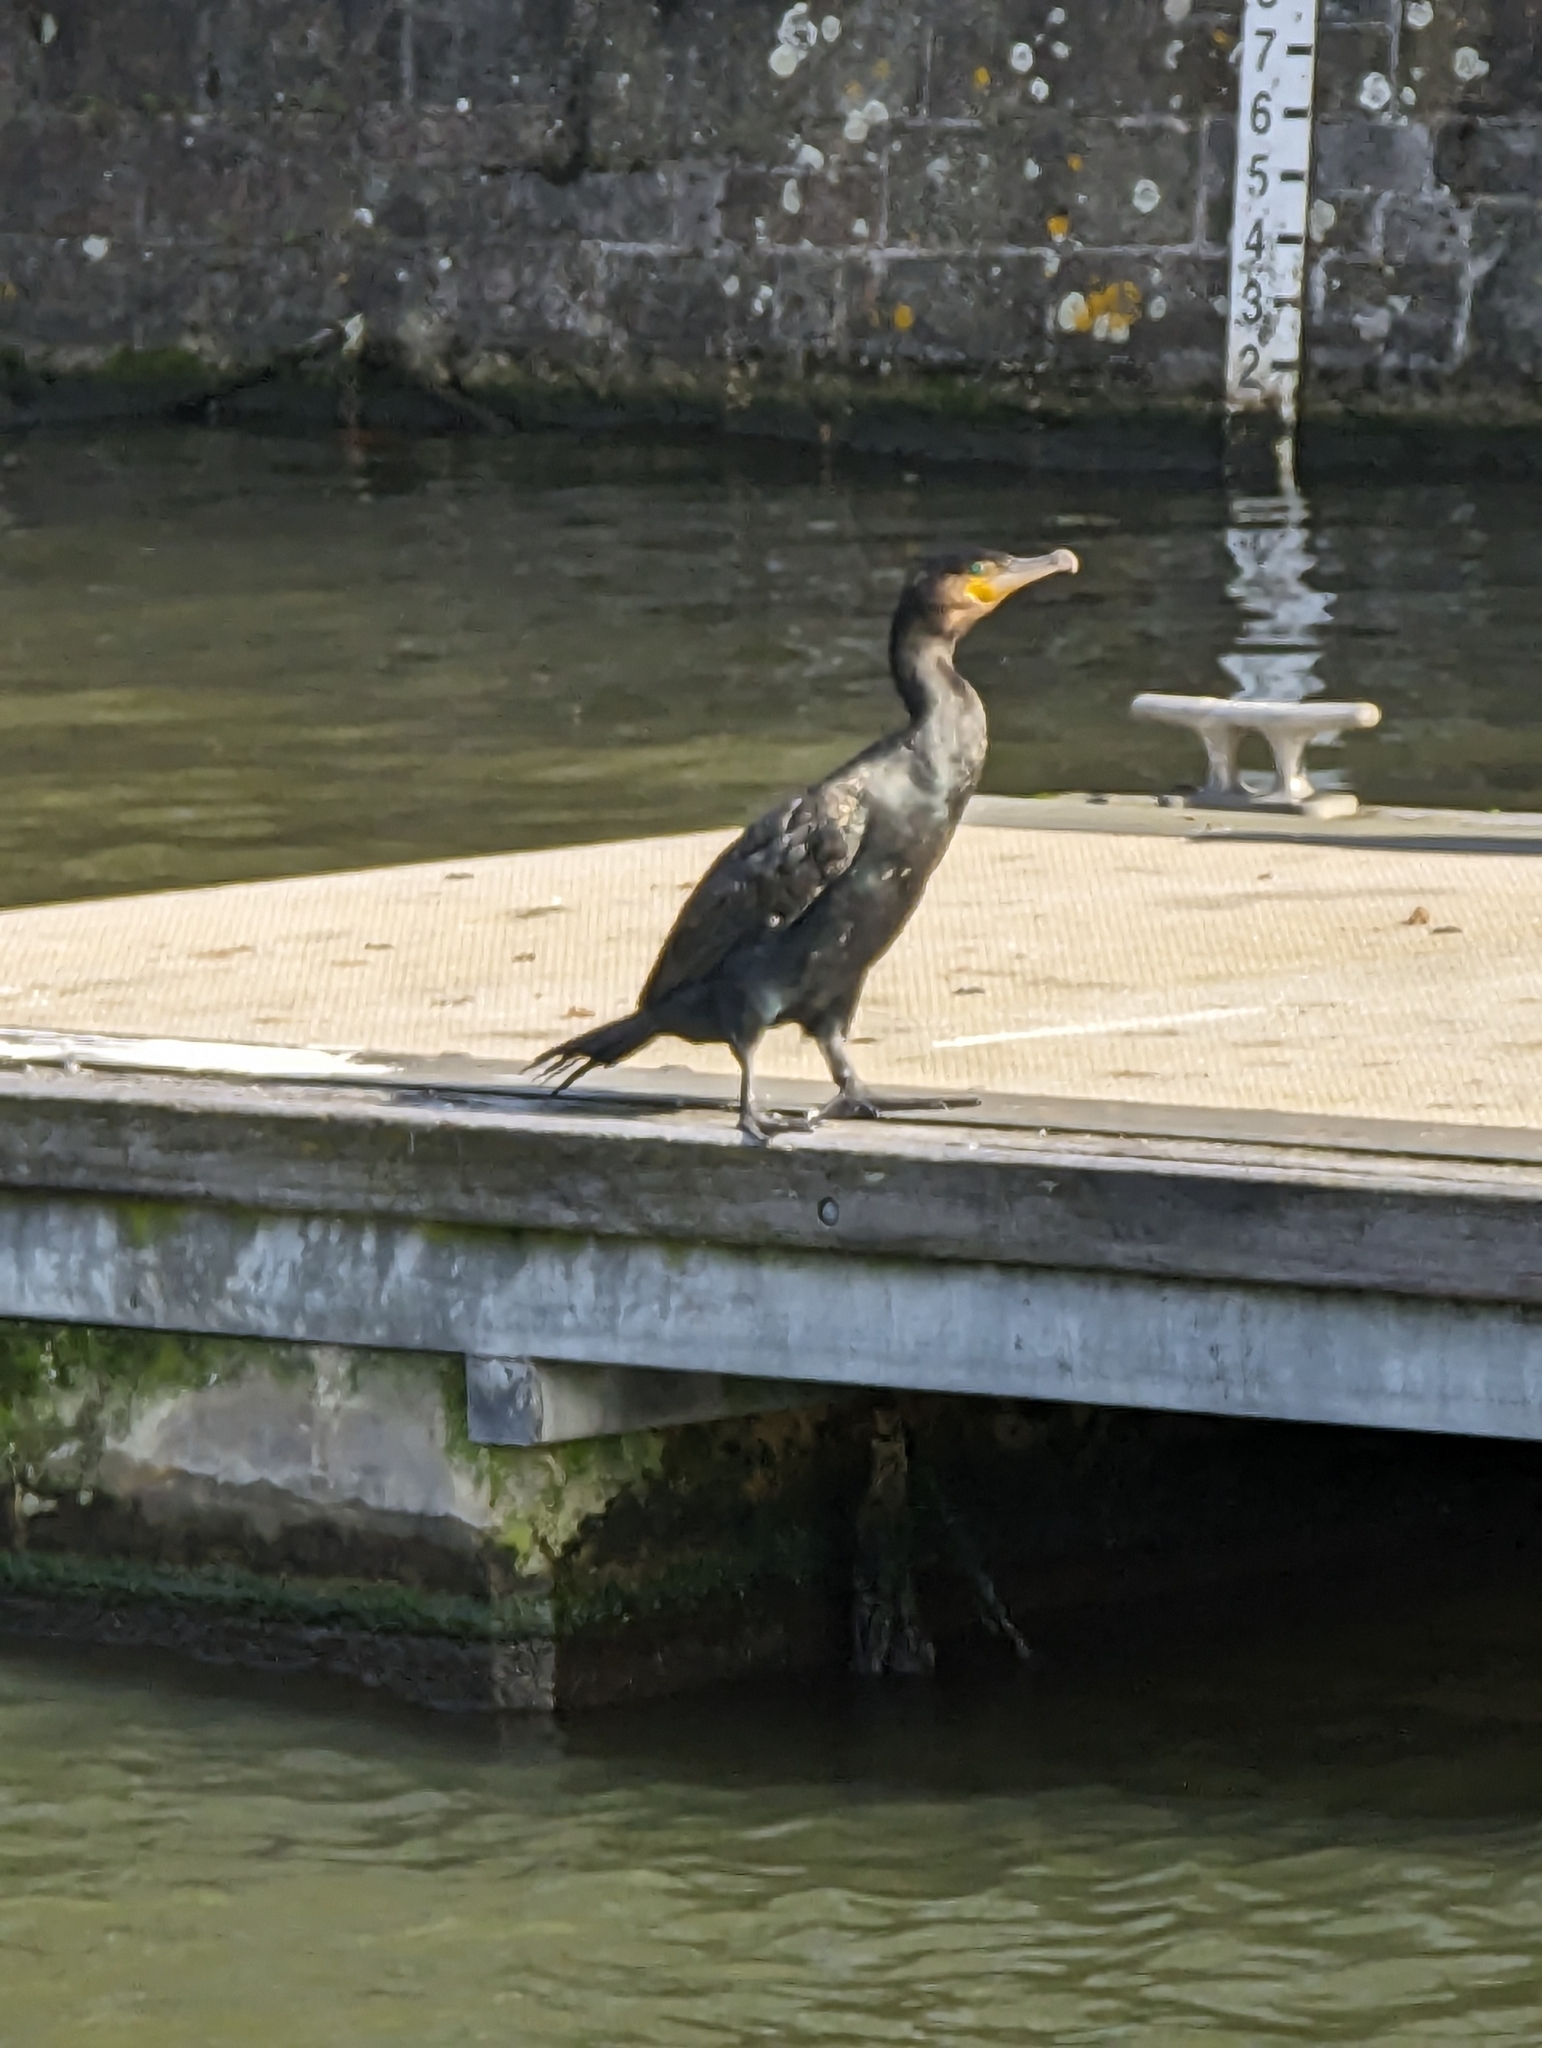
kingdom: Animalia
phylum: Chordata
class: Aves
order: Suliformes
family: Phalacrocoracidae
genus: Phalacrocorax
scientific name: Phalacrocorax carbo
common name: Great cormorant
